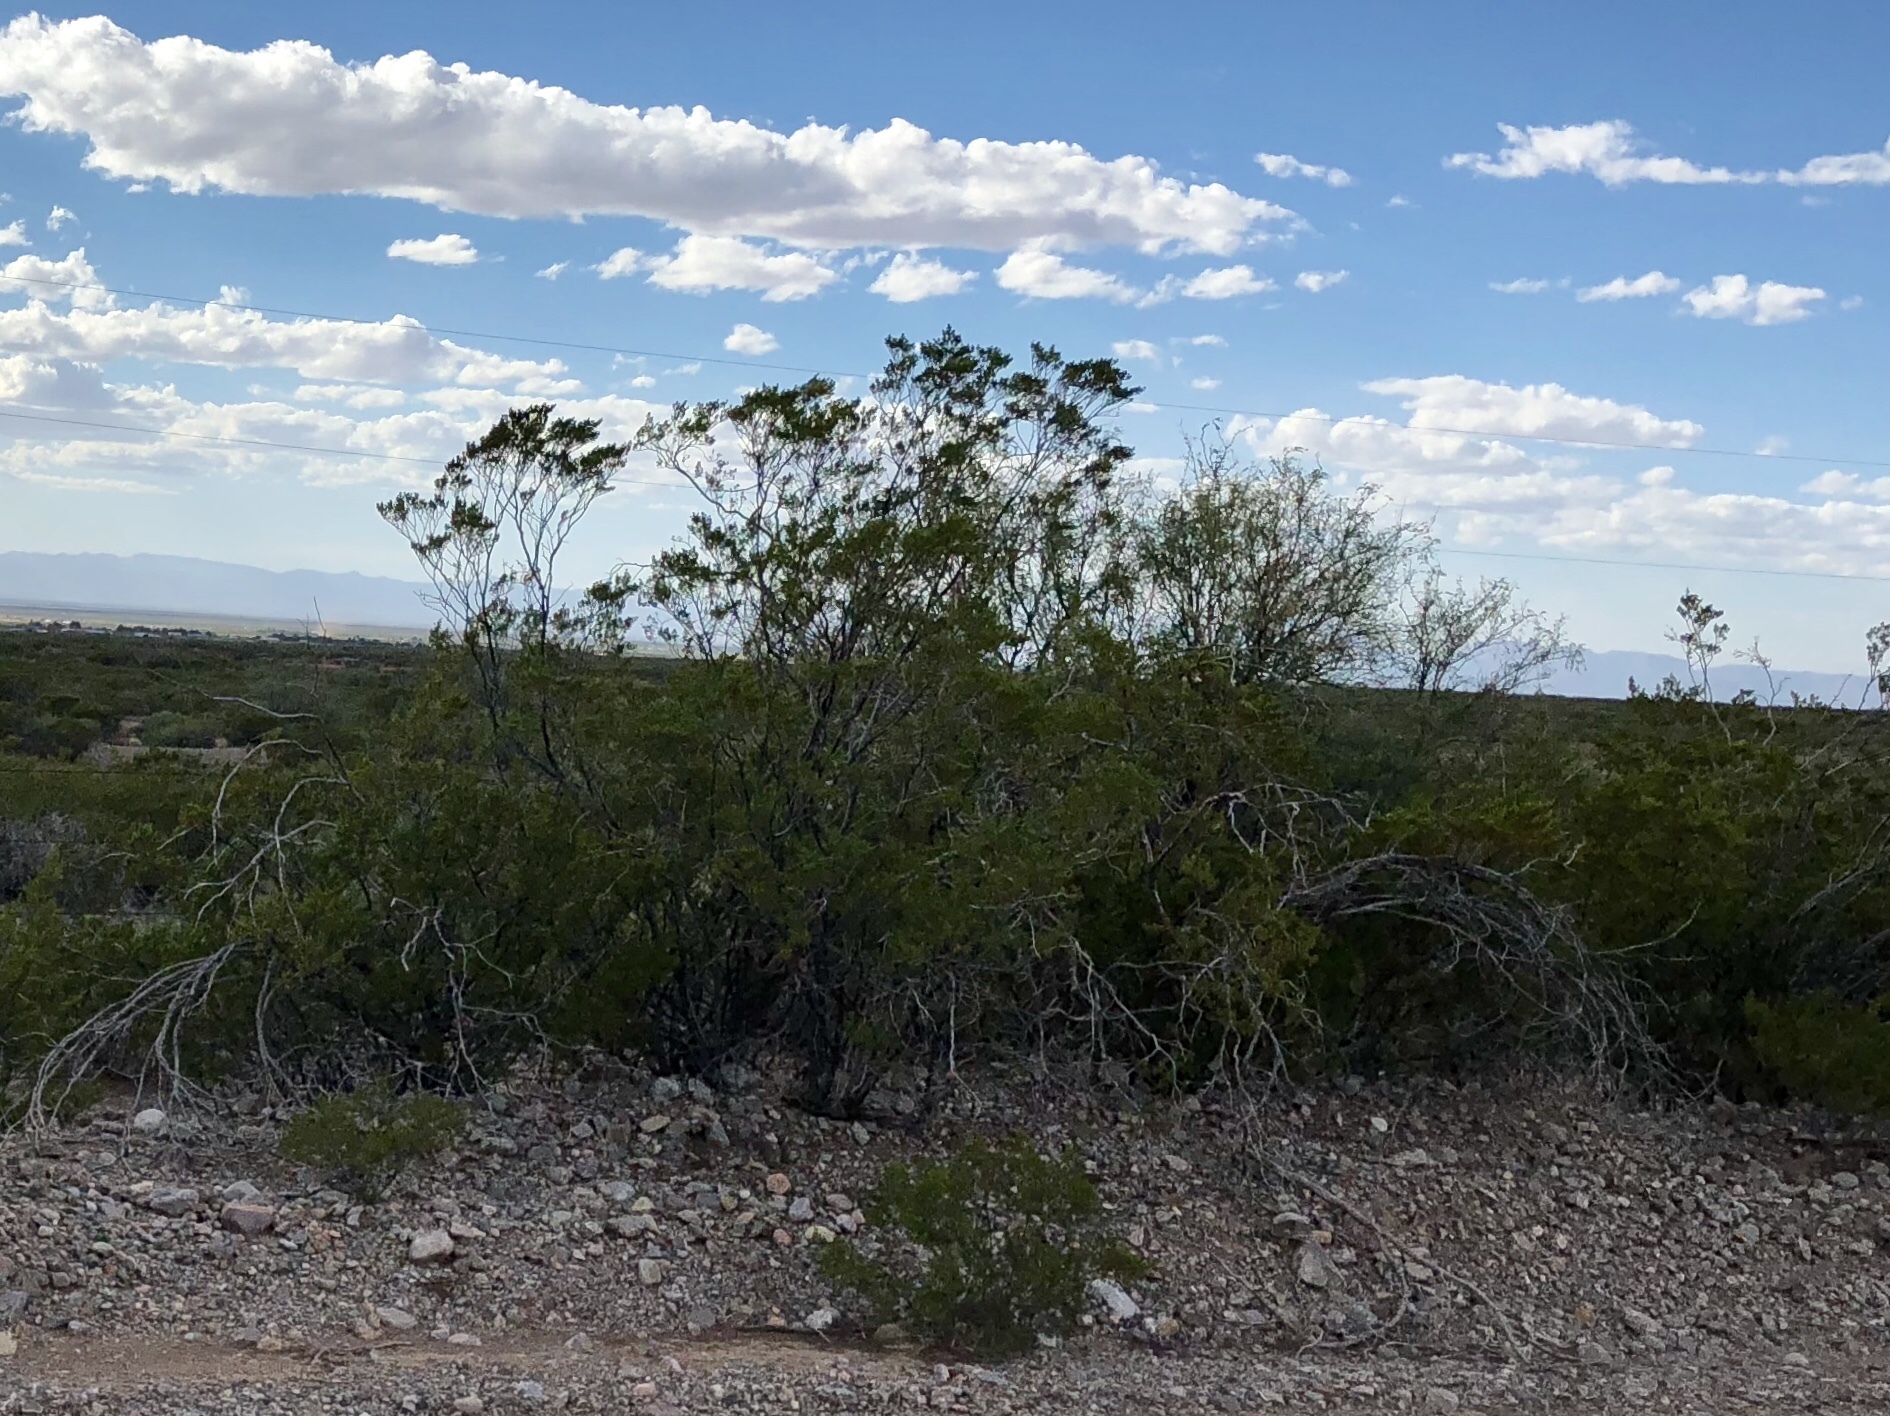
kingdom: Plantae
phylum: Tracheophyta
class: Magnoliopsida
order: Zygophyllales
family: Zygophyllaceae
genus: Larrea
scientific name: Larrea tridentata
